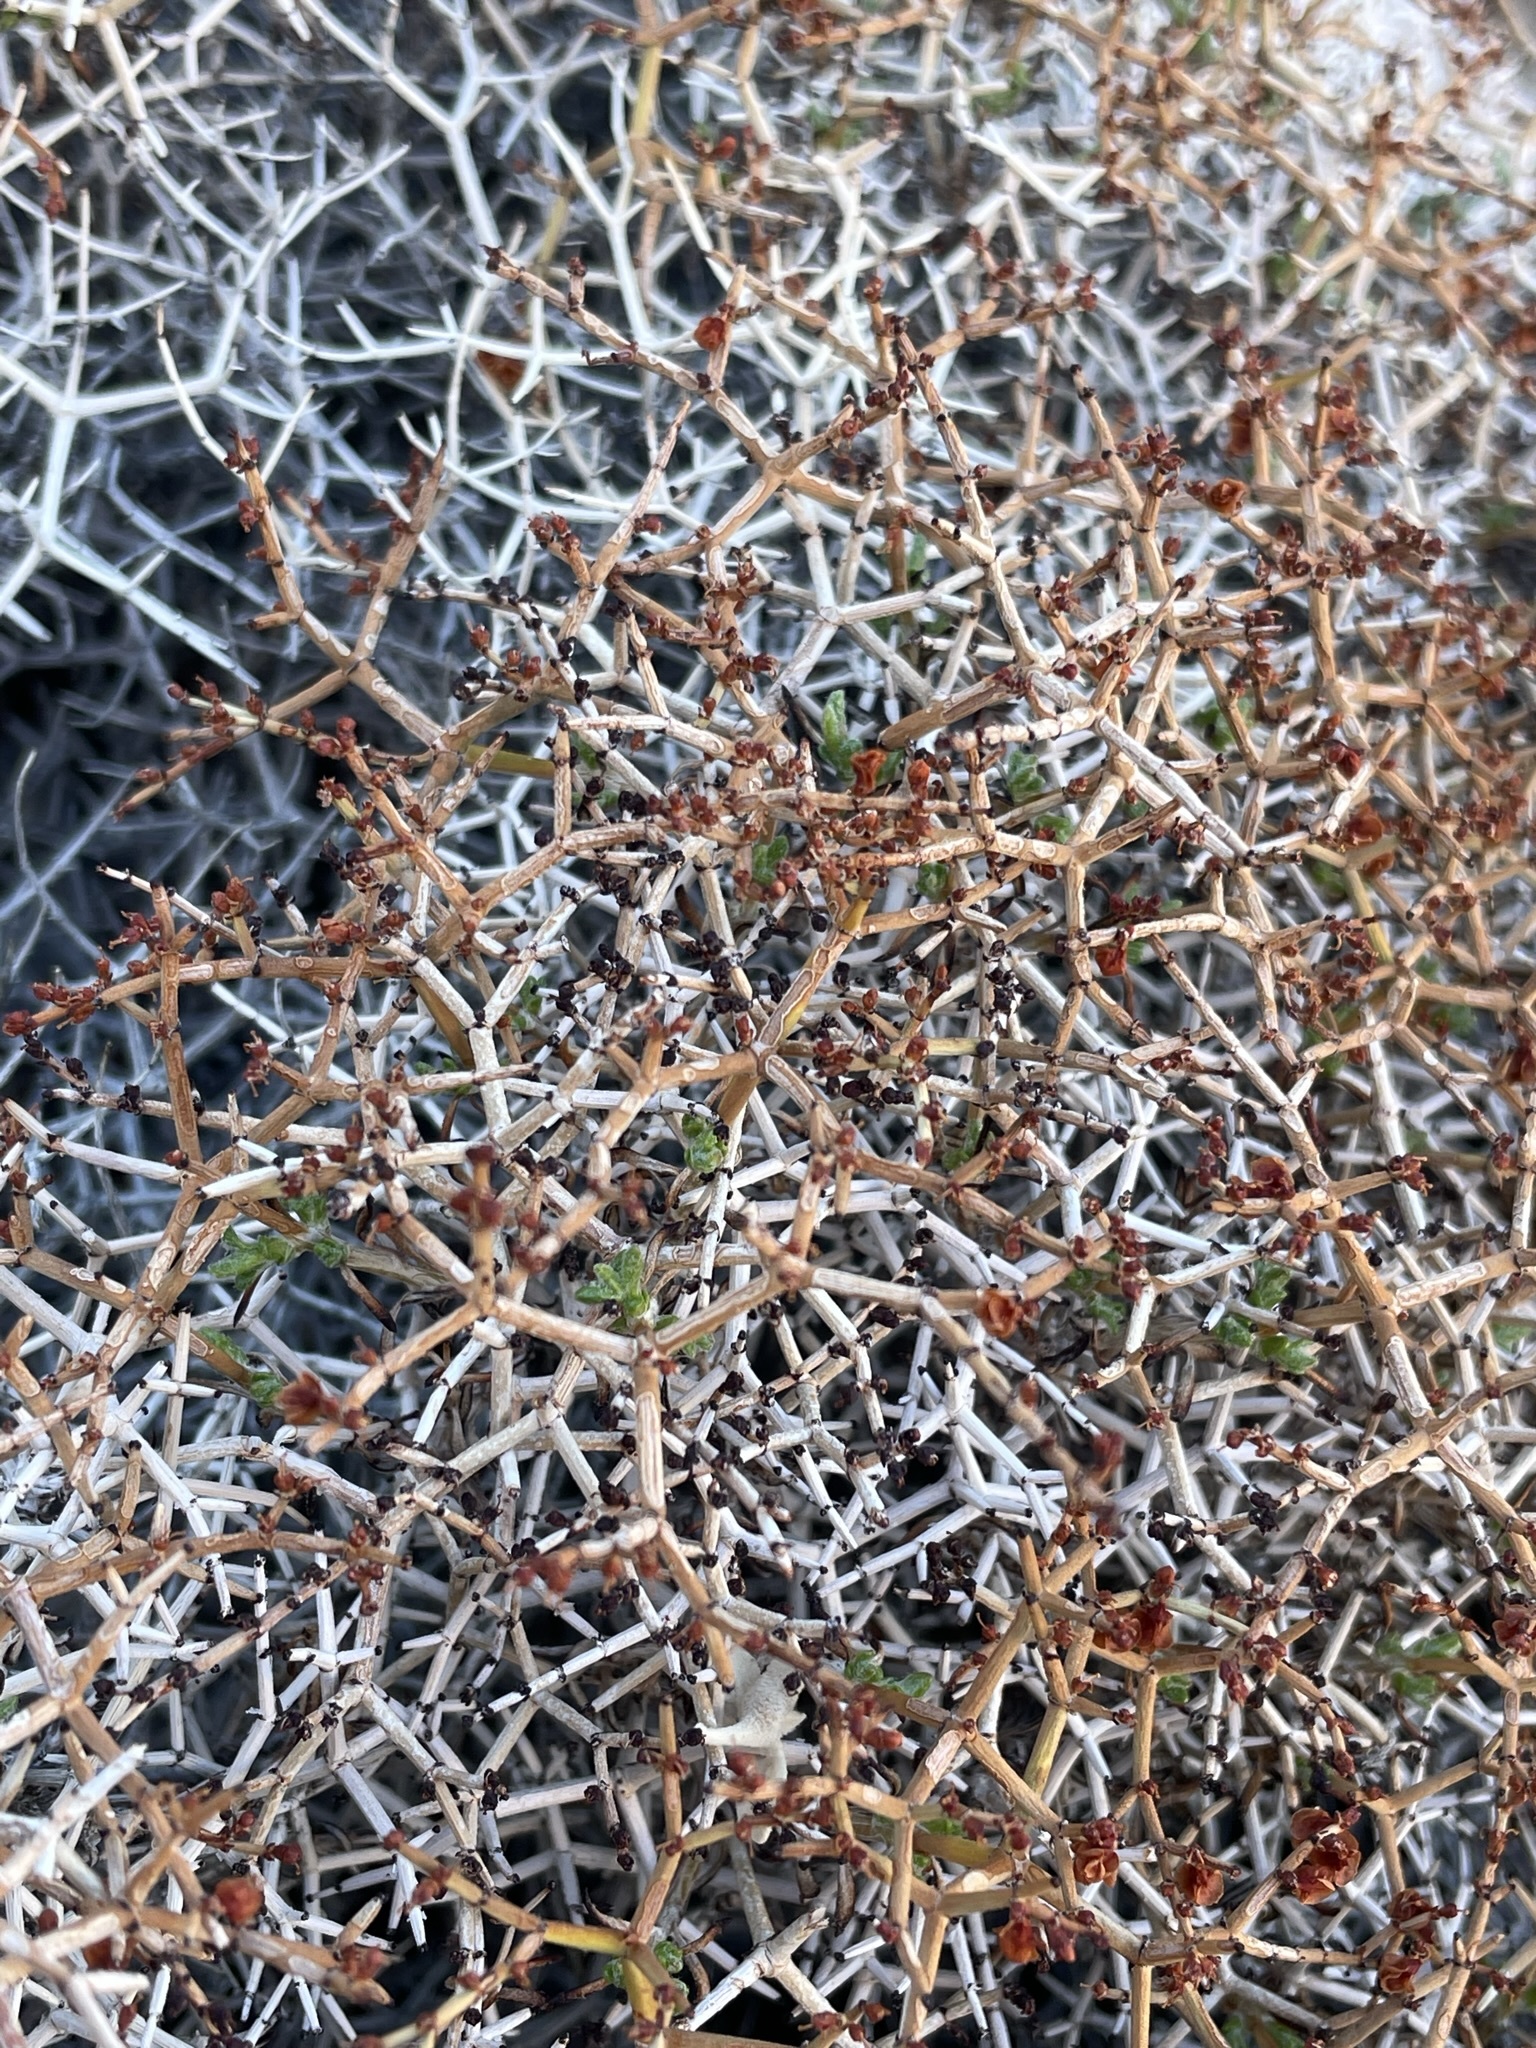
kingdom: Plantae
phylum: Tracheophyta
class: Magnoliopsida
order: Caryophyllales
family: Polygonaceae
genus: Eriogonum
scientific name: Eriogonum heermannii
